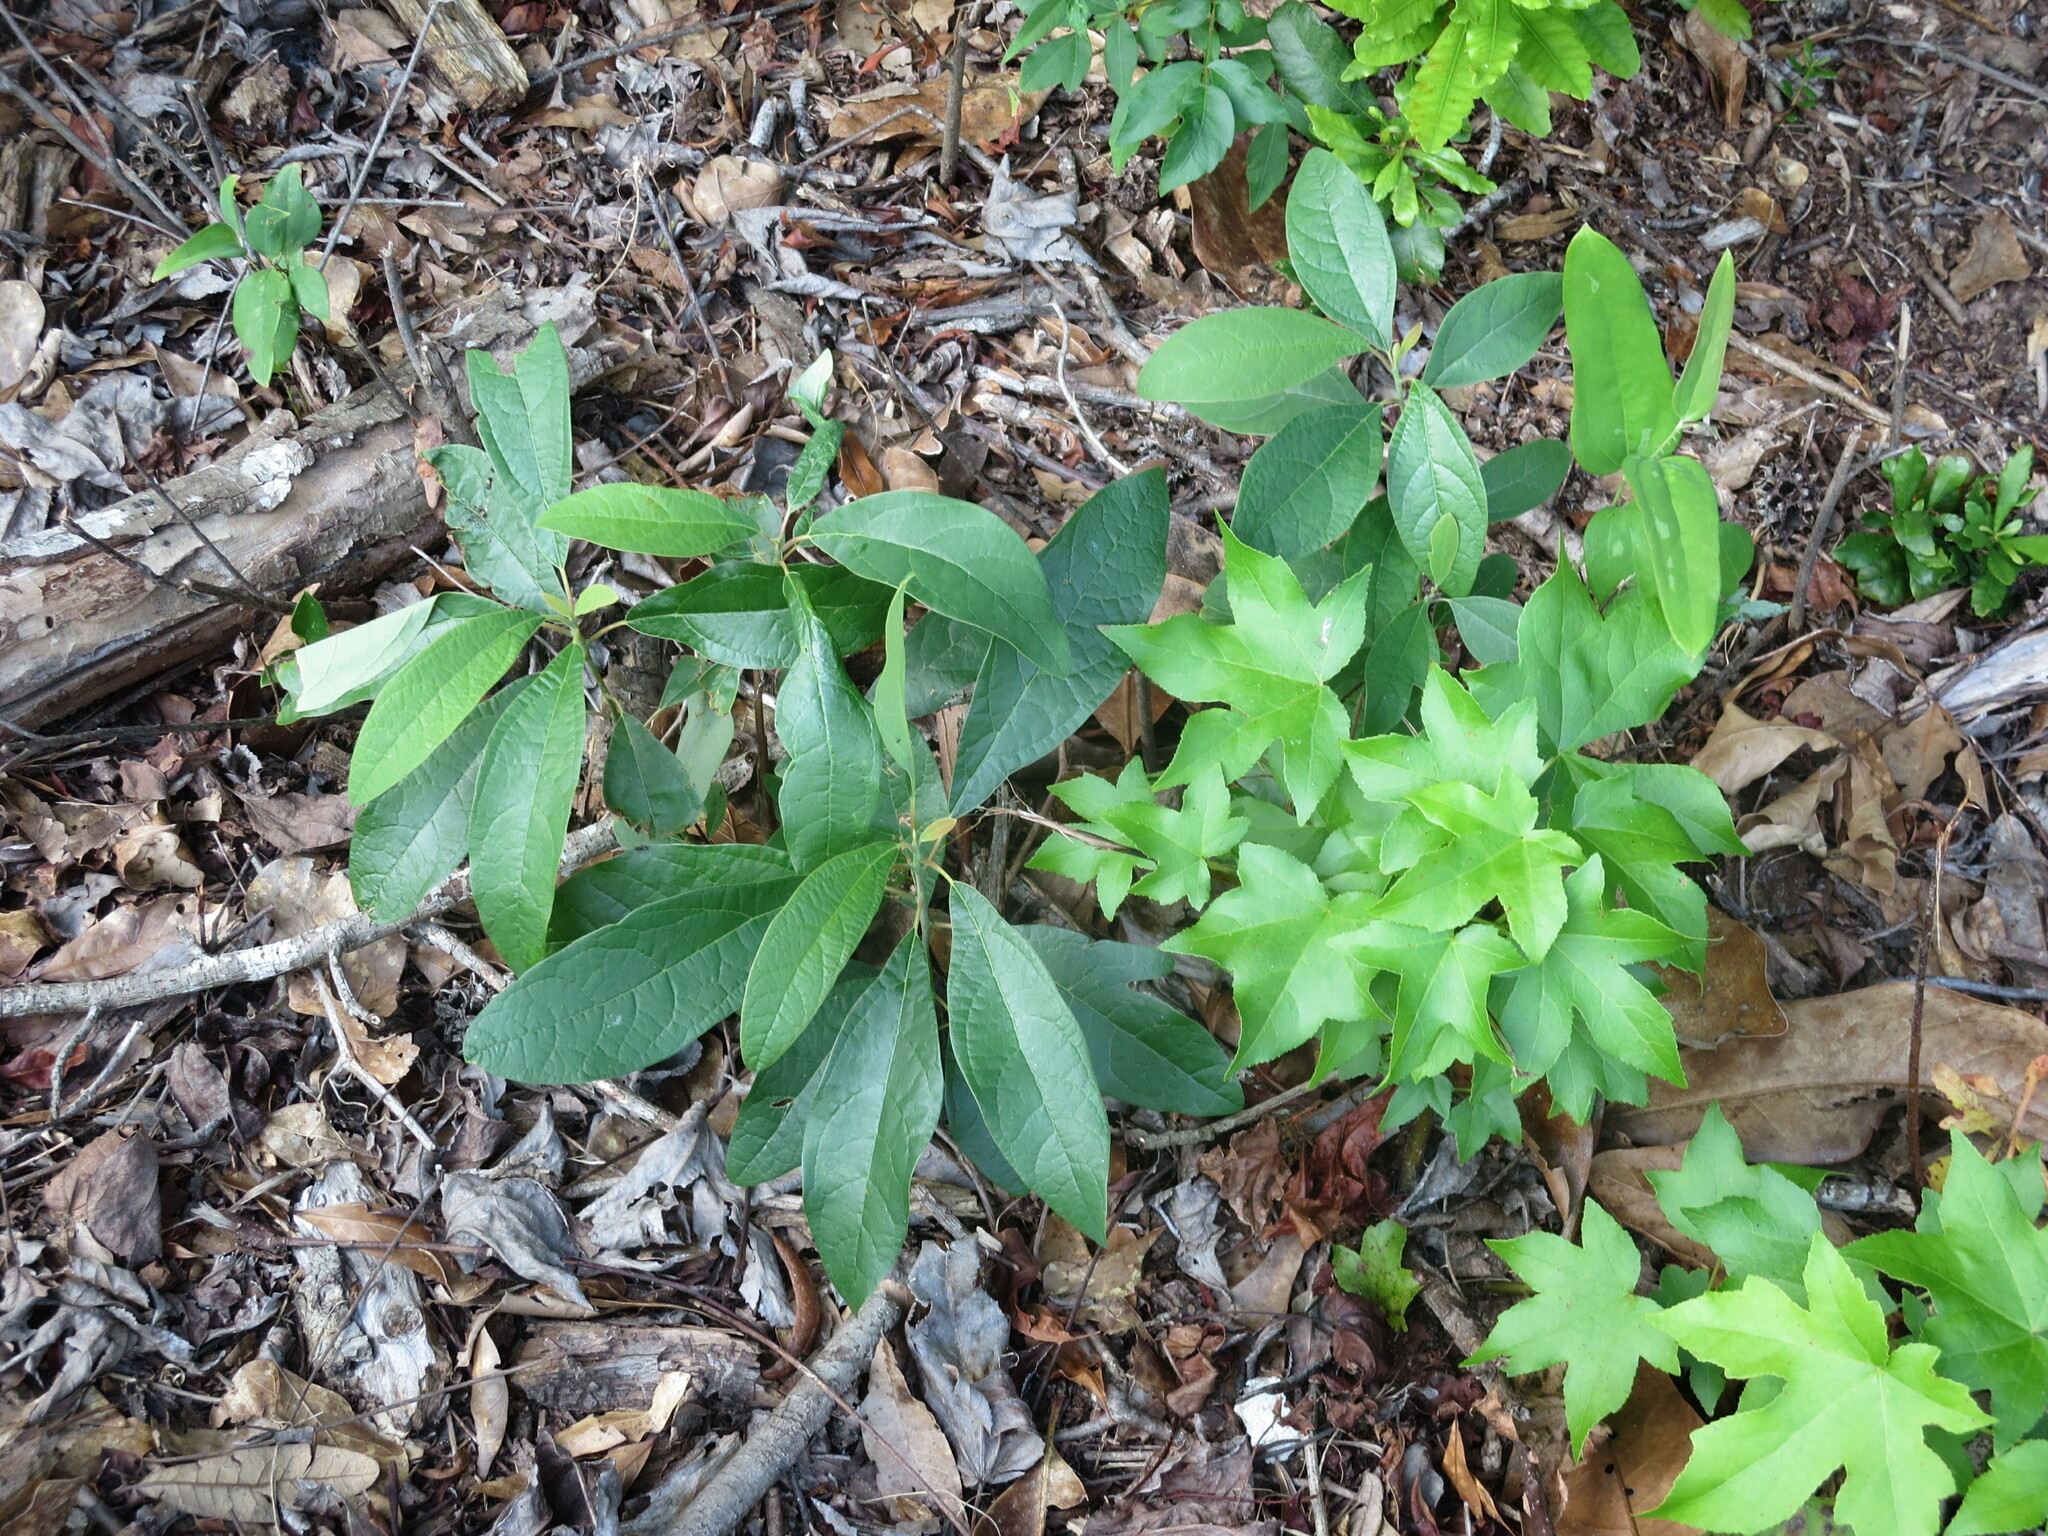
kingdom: Plantae
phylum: Tracheophyta
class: Magnoliopsida
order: Laurales
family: Lauraceae
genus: Sassafras
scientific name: Sassafras albidum
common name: Sassafras
